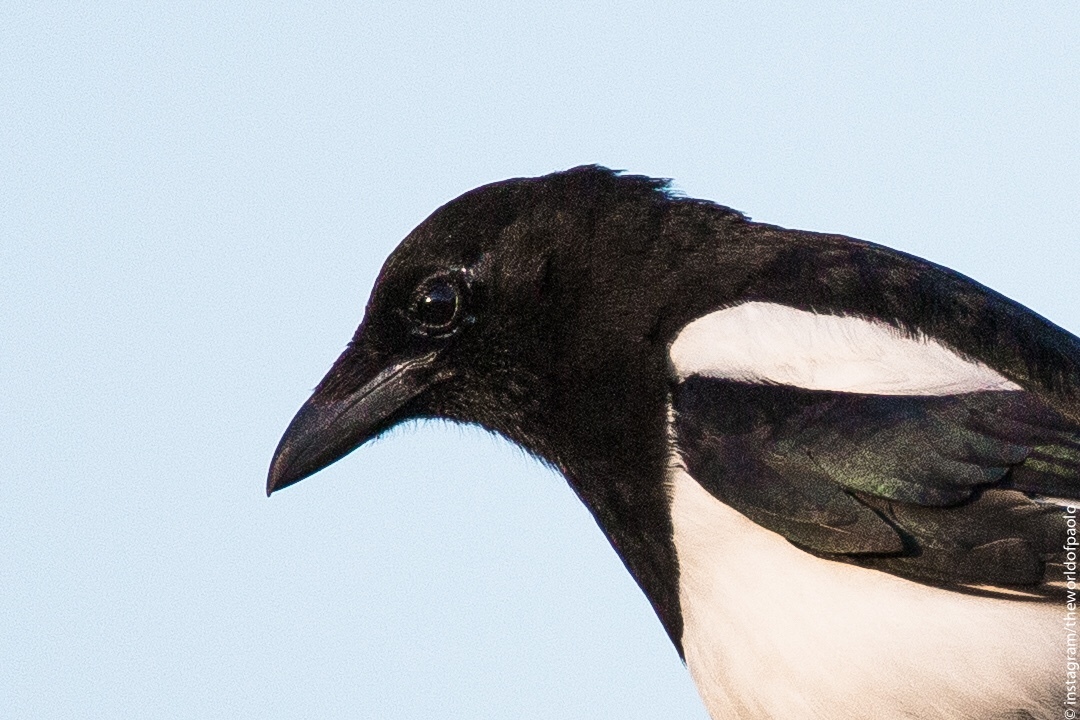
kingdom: Animalia
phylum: Chordata
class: Aves
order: Passeriformes
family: Corvidae
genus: Pica
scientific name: Pica pica
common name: Eurasian magpie
